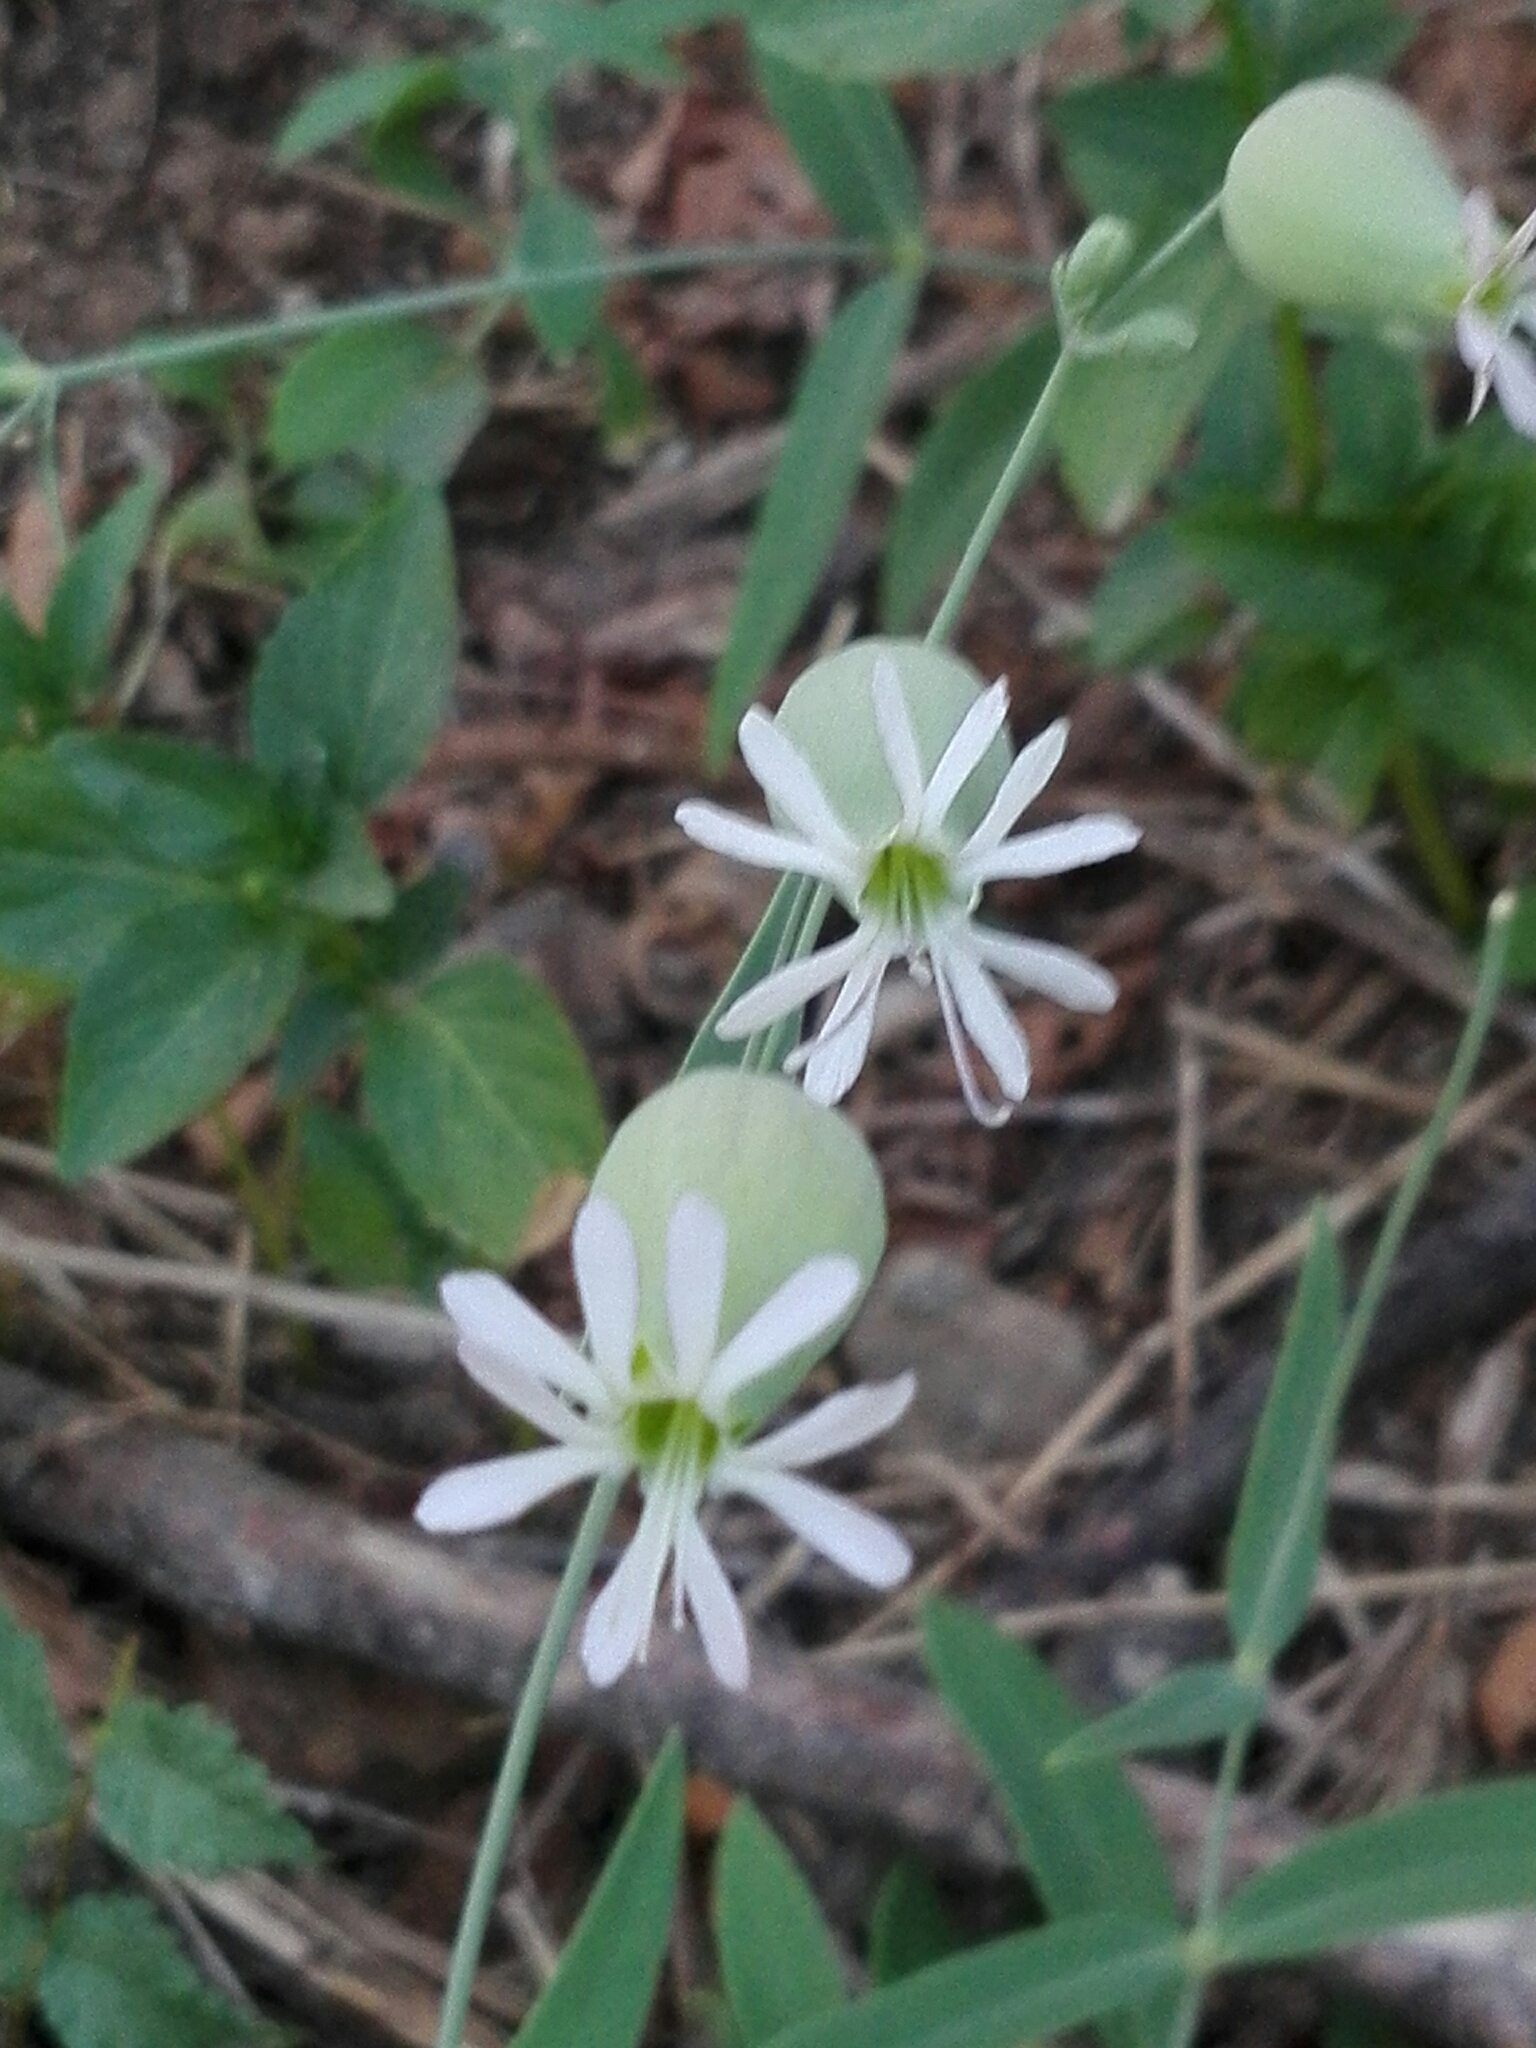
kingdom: Plantae
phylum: Tracheophyta
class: Magnoliopsida
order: Caryophyllales
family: Caryophyllaceae
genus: Silene
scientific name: Silene vulgaris
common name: Bladder campion
